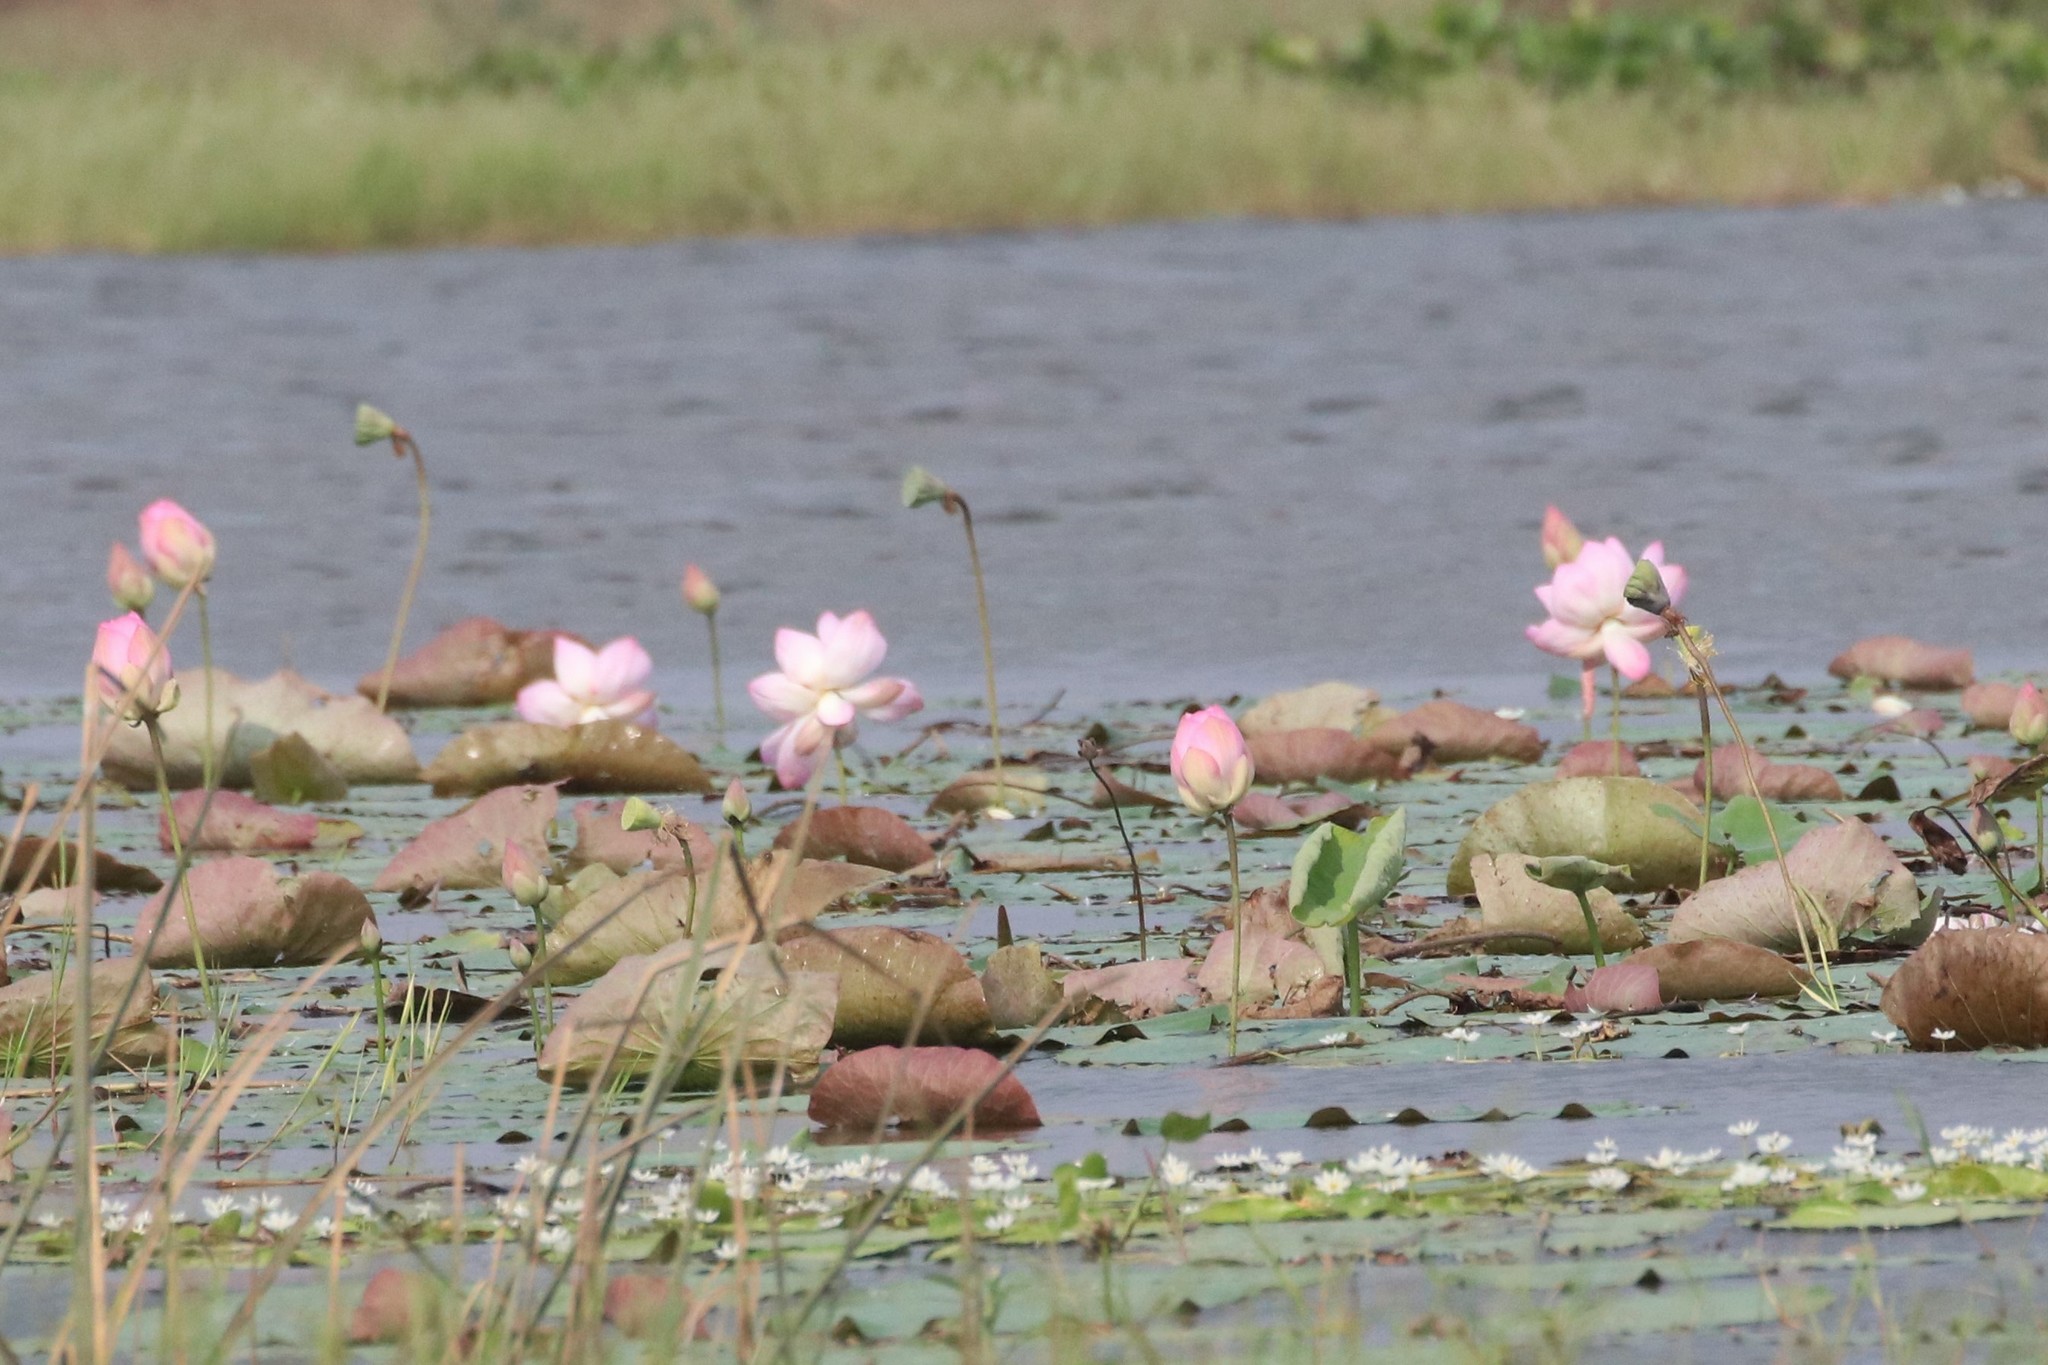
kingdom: Plantae
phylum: Tracheophyta
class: Magnoliopsida
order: Proteales
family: Nelumbonaceae
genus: Nelumbo
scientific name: Nelumbo nucifera
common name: Sacred lotus
